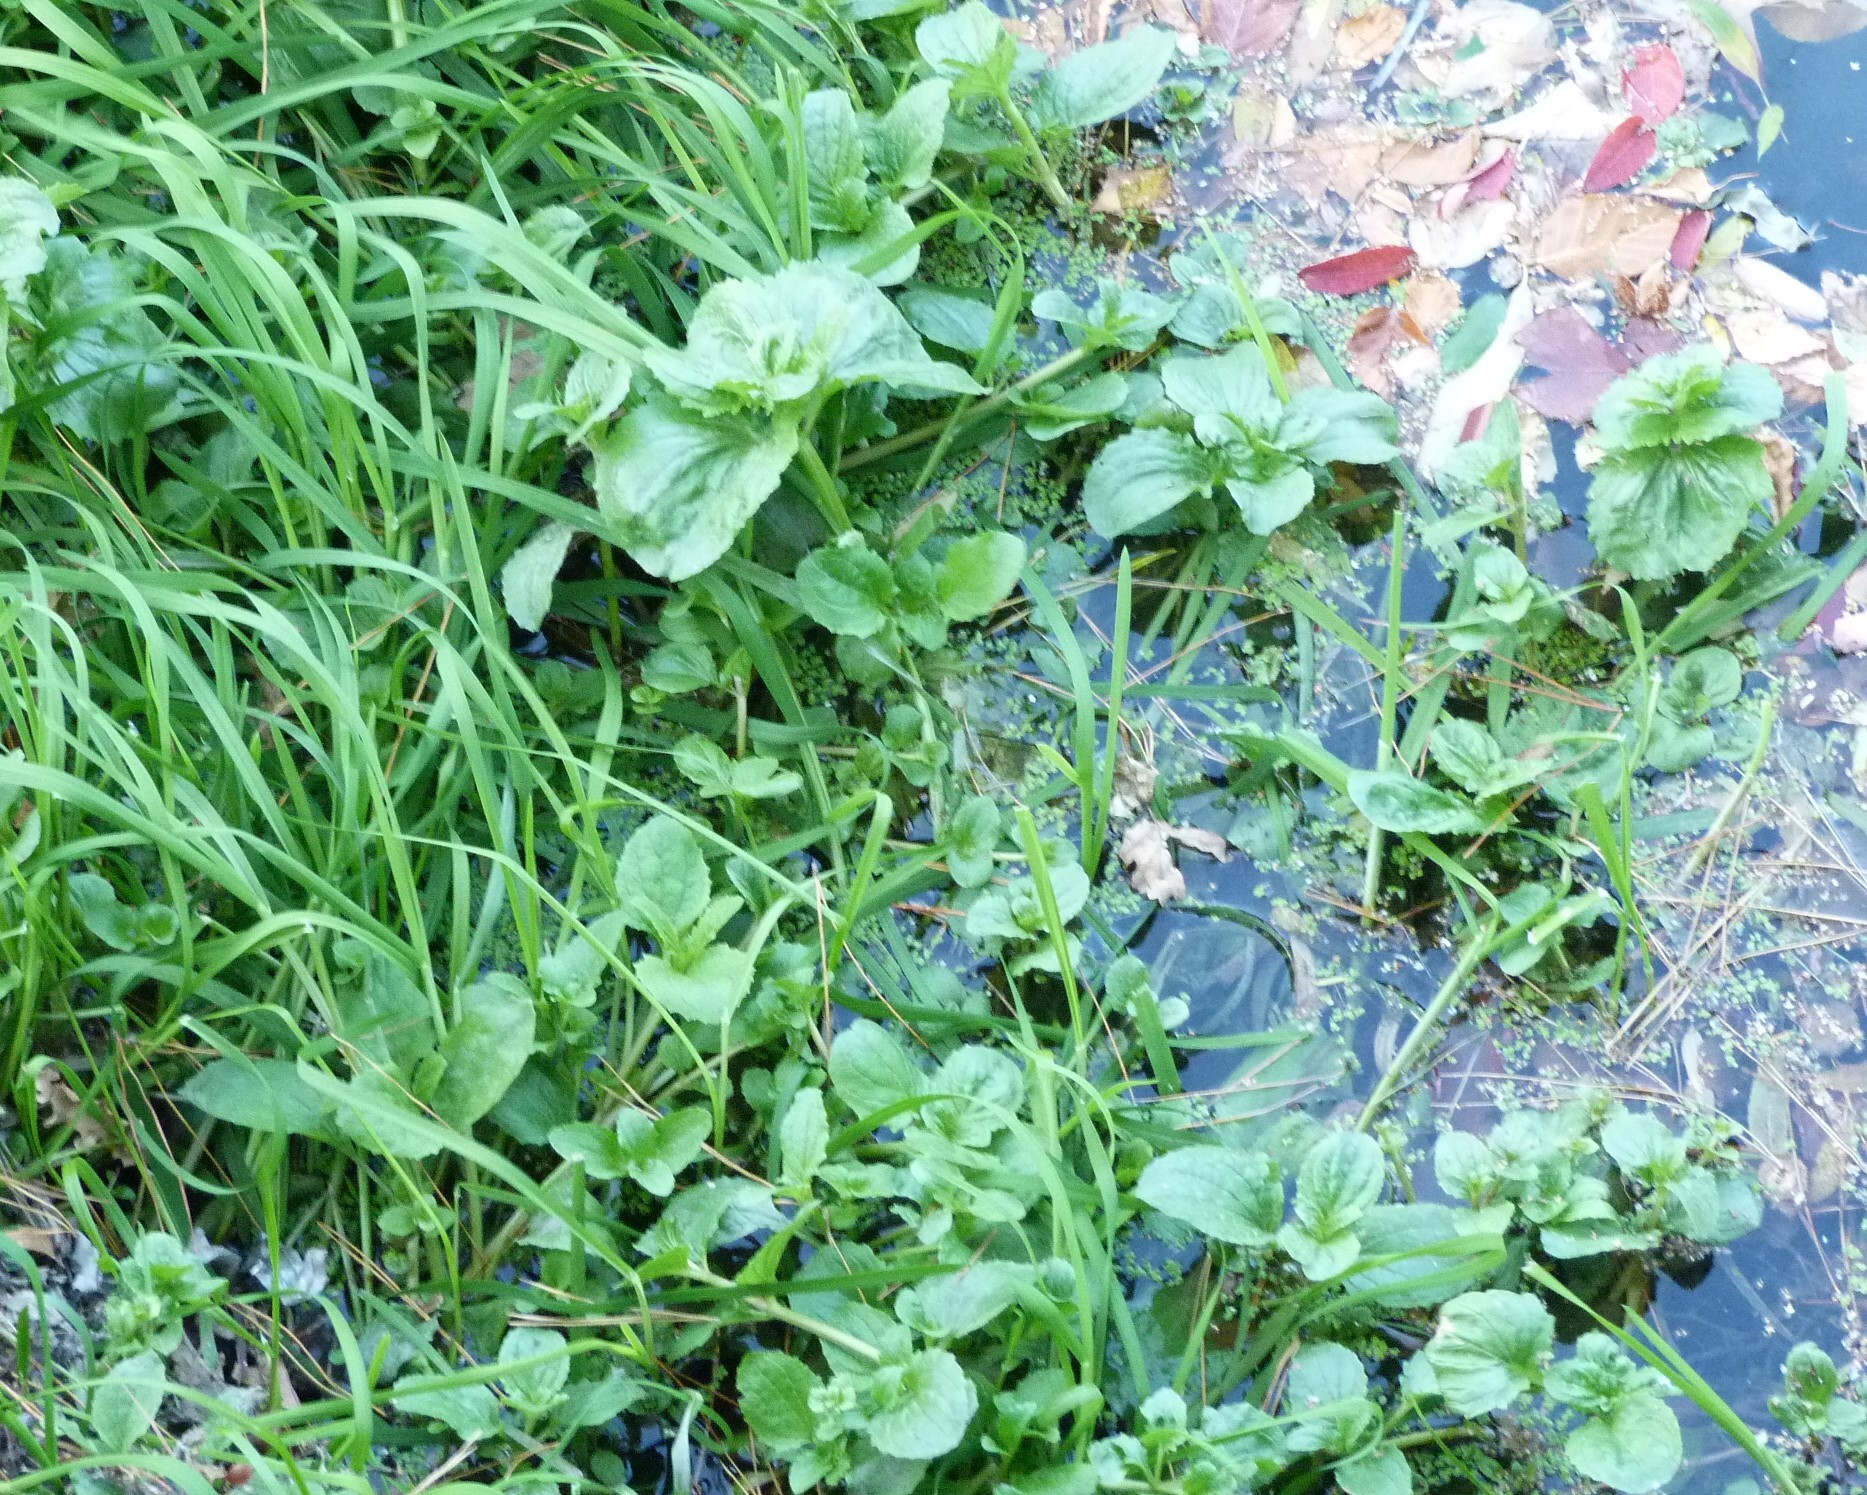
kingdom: Plantae
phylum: Tracheophyta
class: Magnoliopsida
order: Lamiales
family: Phrymaceae
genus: Erythranthe
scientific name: Erythranthe guttata
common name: Monkeyflower
